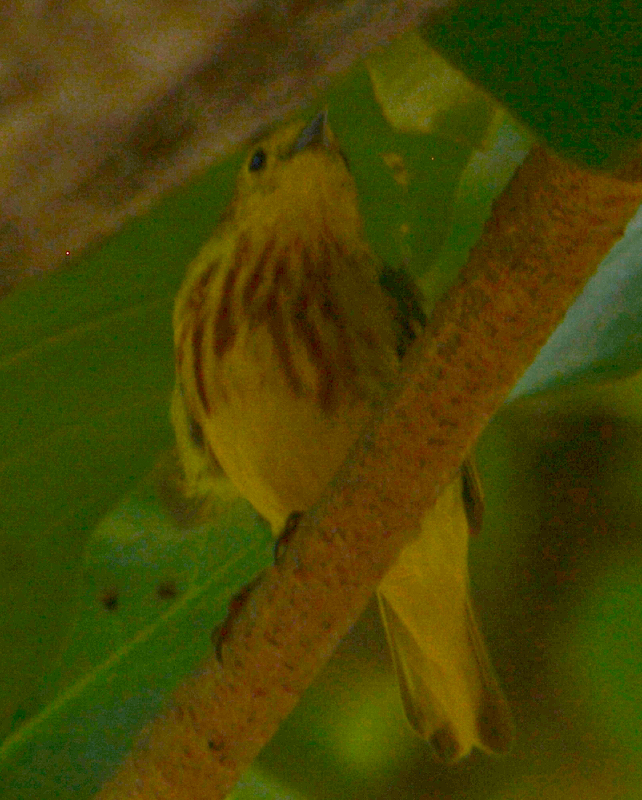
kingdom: Animalia
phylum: Chordata
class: Aves
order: Passeriformes
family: Parulidae
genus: Setophaga
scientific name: Setophaga petechia
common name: Yellow warbler
